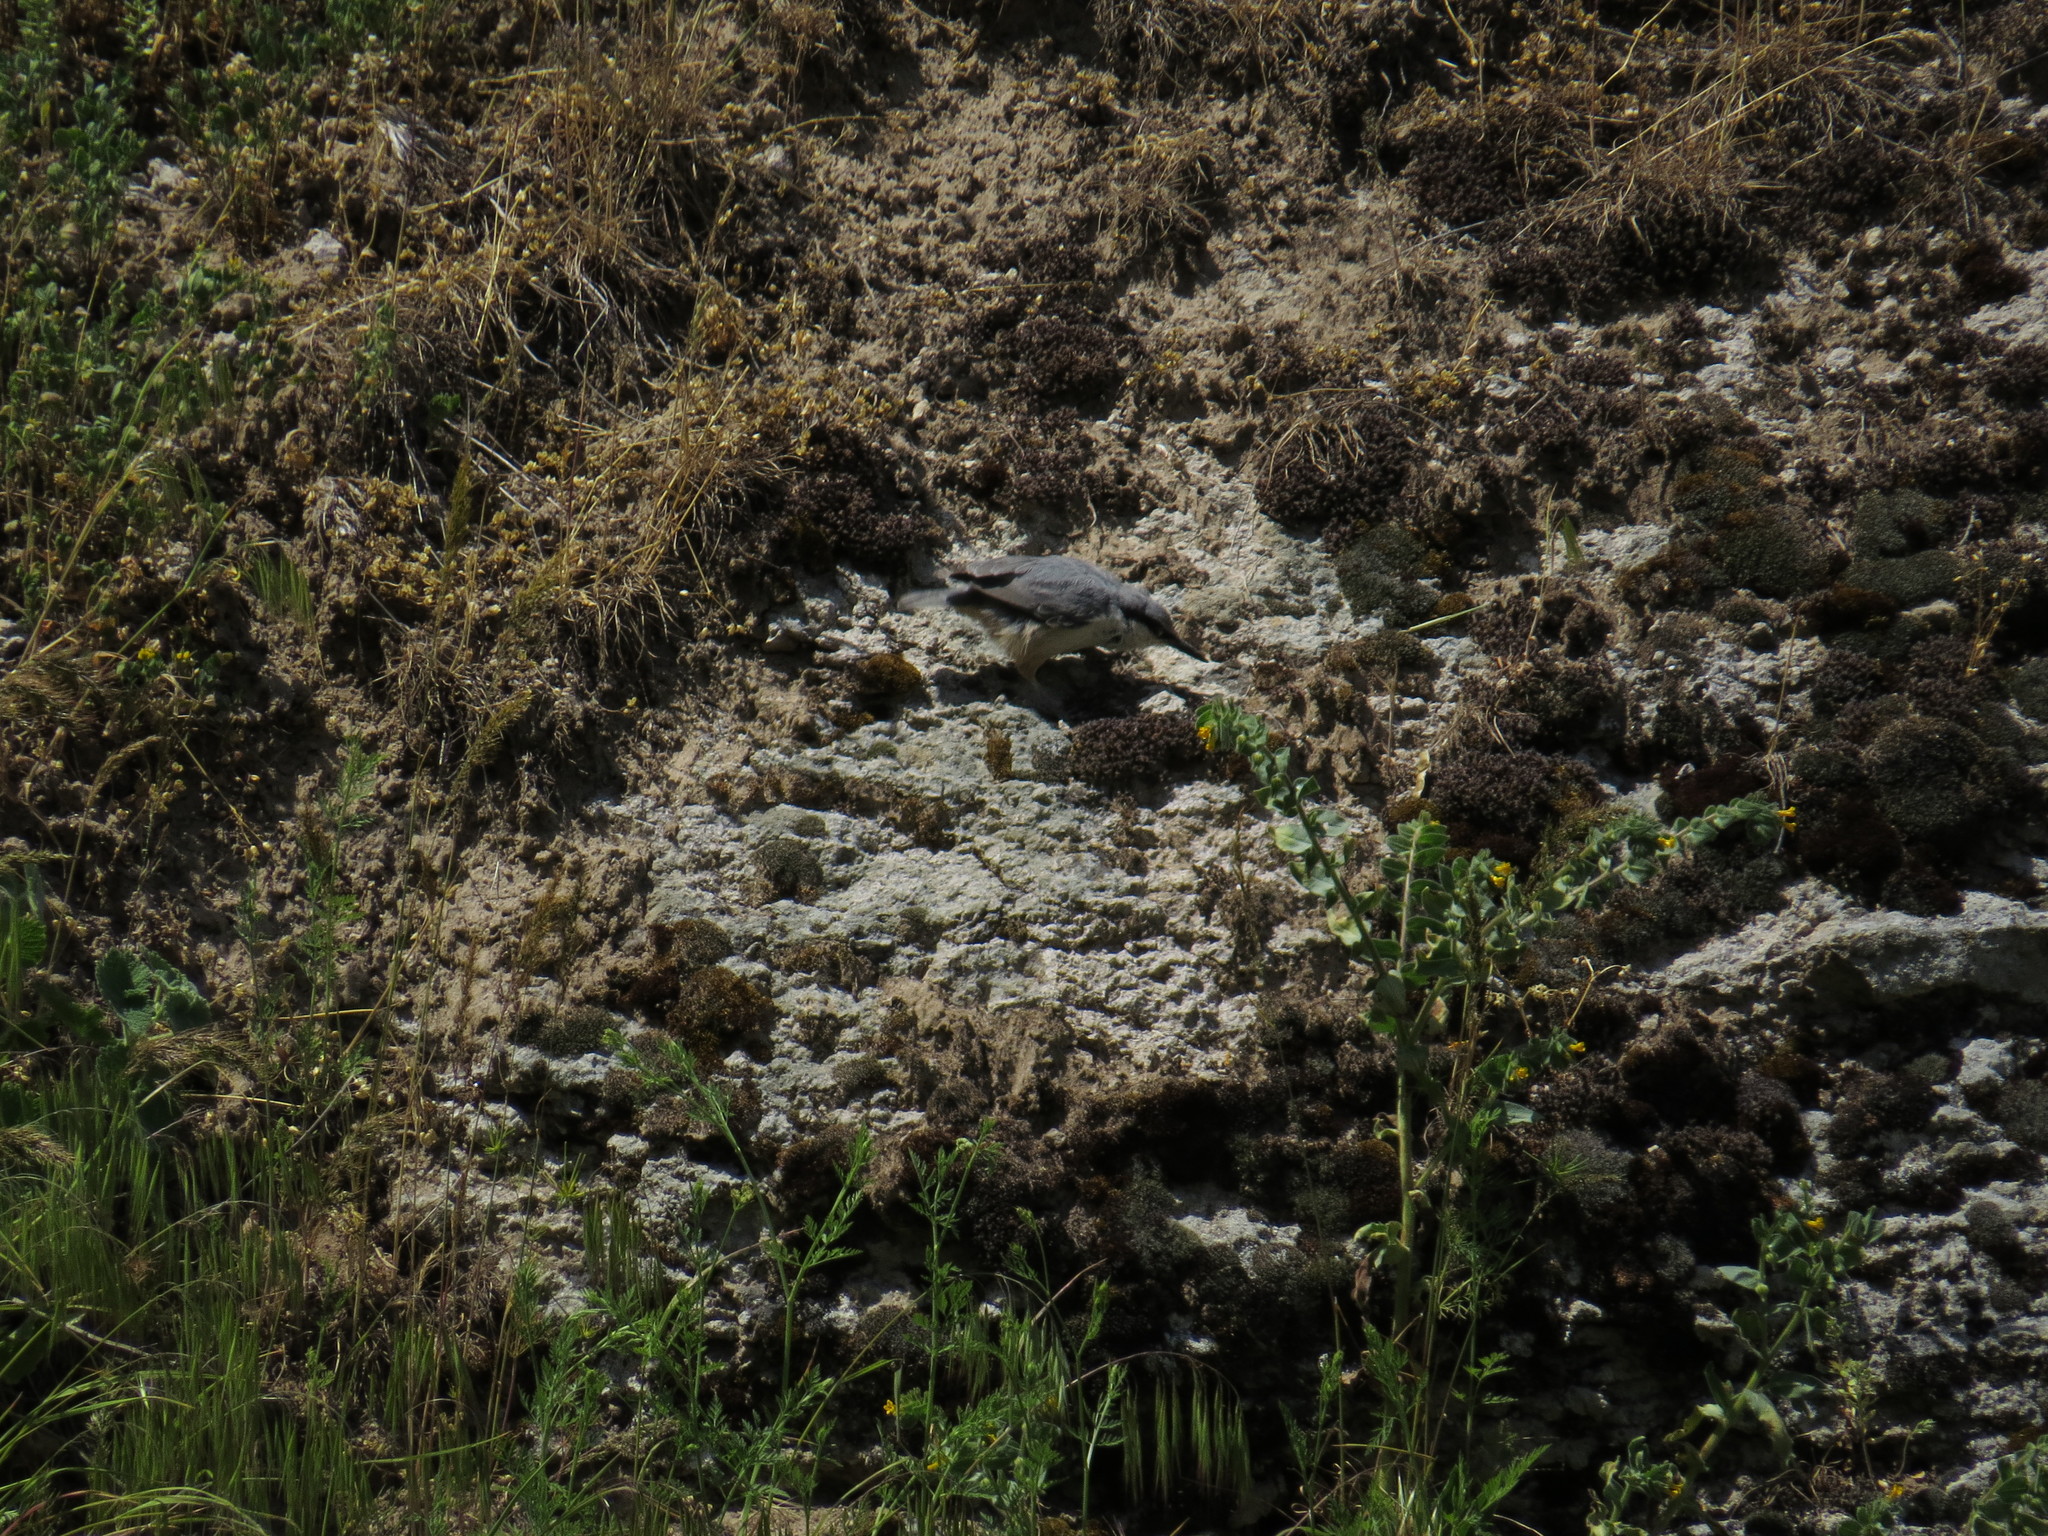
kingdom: Animalia
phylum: Chordata
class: Aves
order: Passeriformes
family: Sittidae
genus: Sitta
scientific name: Sitta neumayer
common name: Western rock nuthatch
